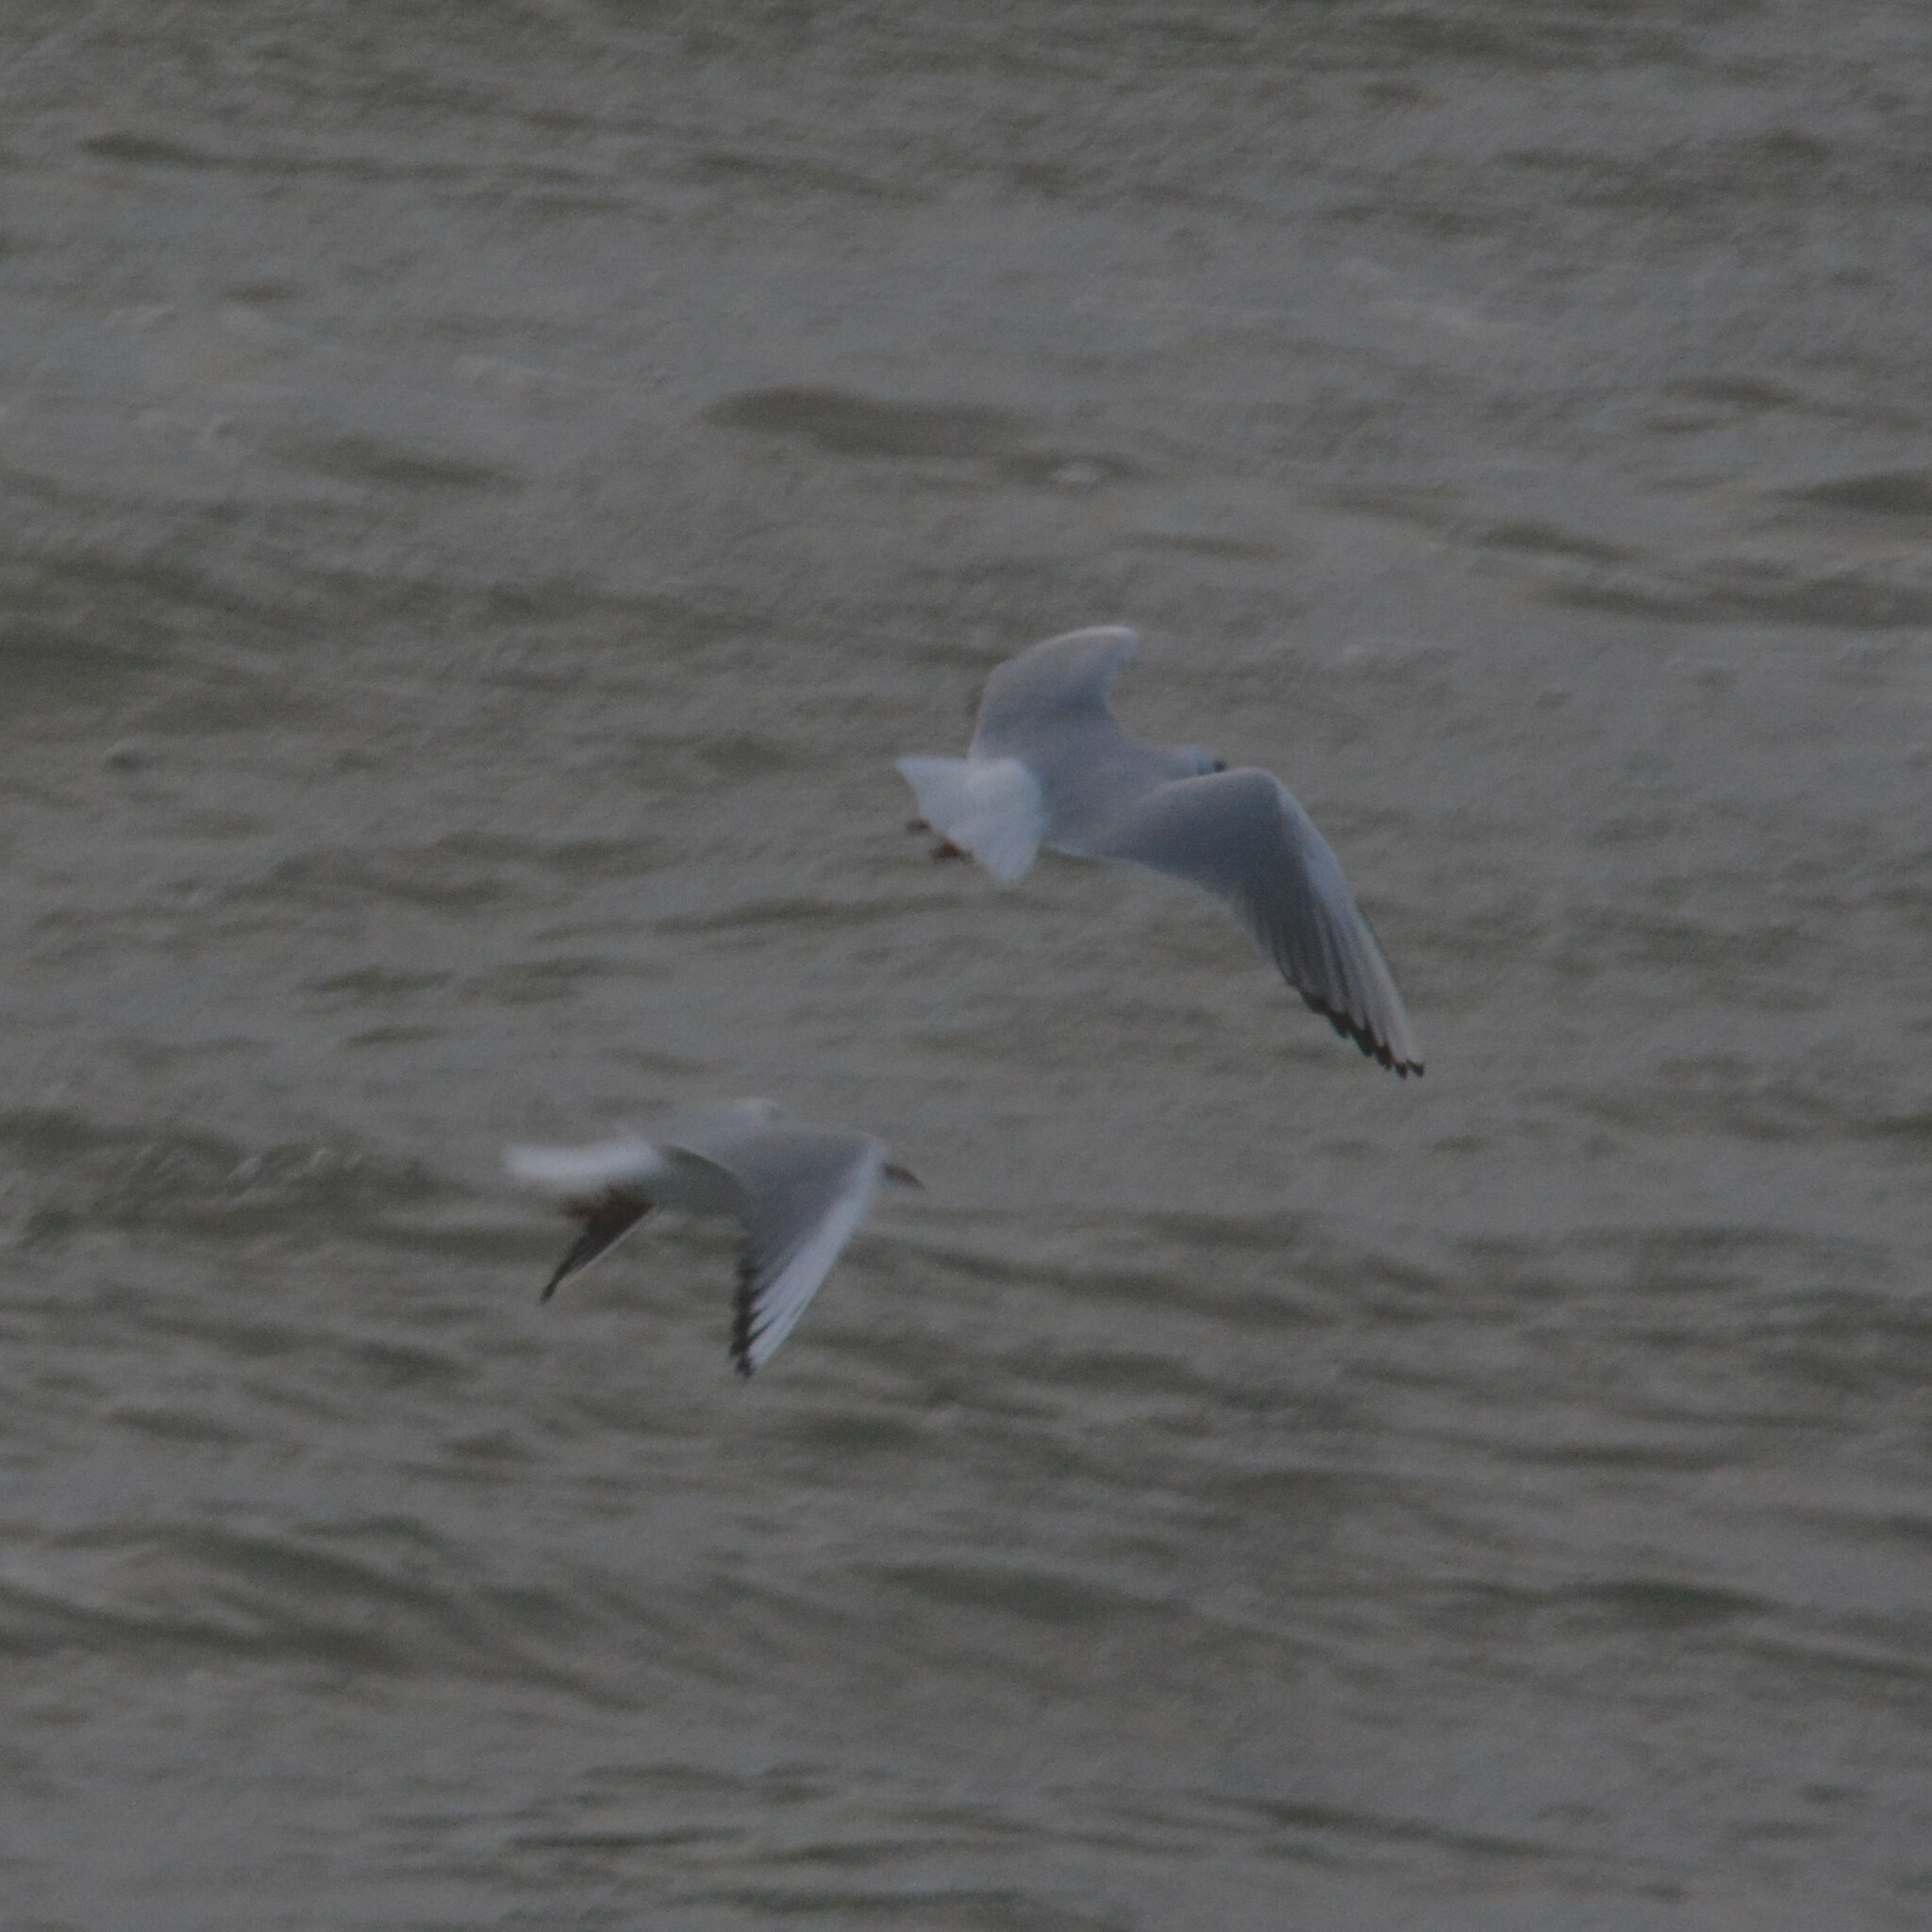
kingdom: Animalia
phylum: Chordata
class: Aves
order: Charadriiformes
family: Laridae
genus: Chroicocephalus
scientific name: Chroicocephalus ridibundus
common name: Black-headed gull
